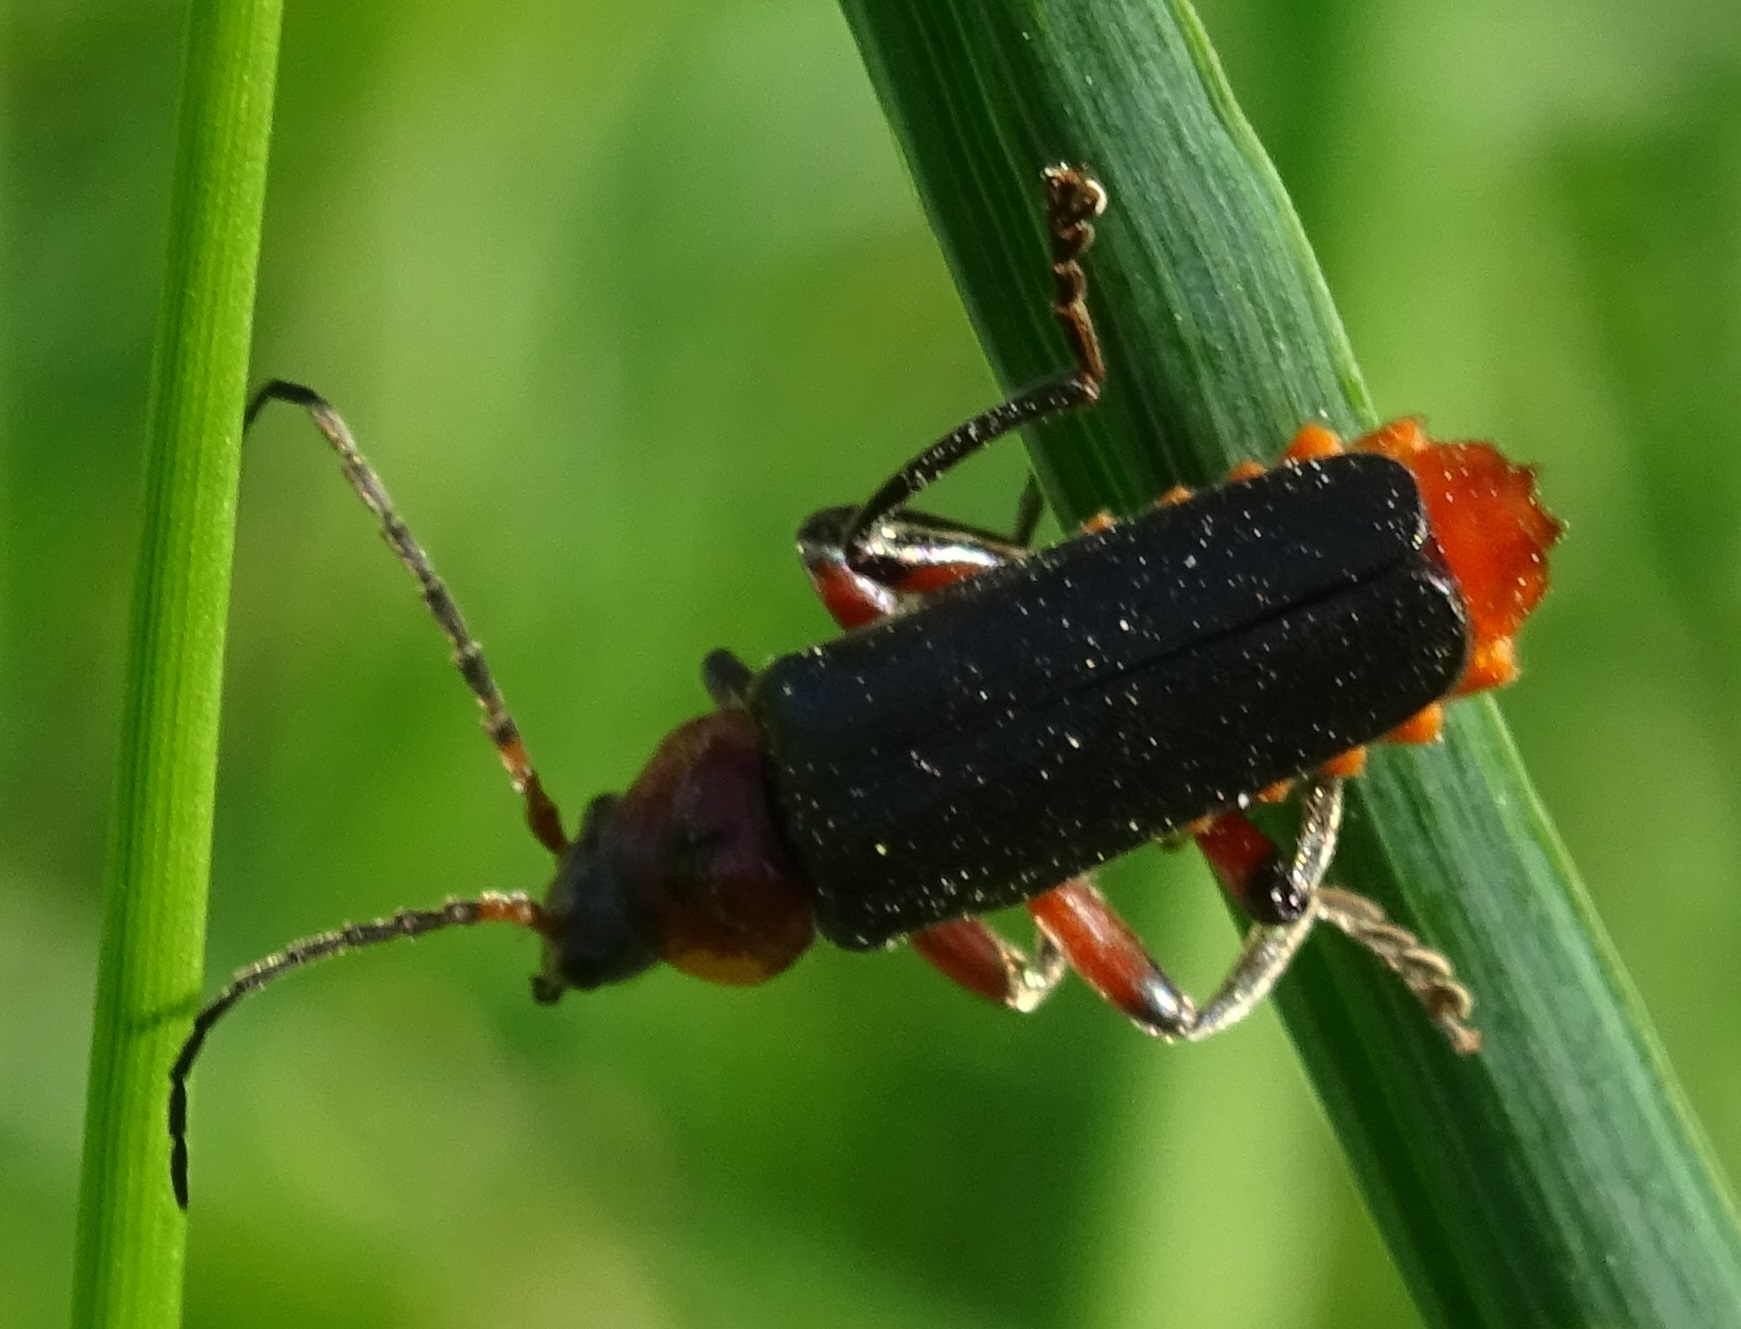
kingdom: Animalia
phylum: Arthropoda
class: Insecta
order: Coleoptera
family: Cantharidae
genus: Cantharis
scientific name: Cantharis rustica
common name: Soldier beetle
